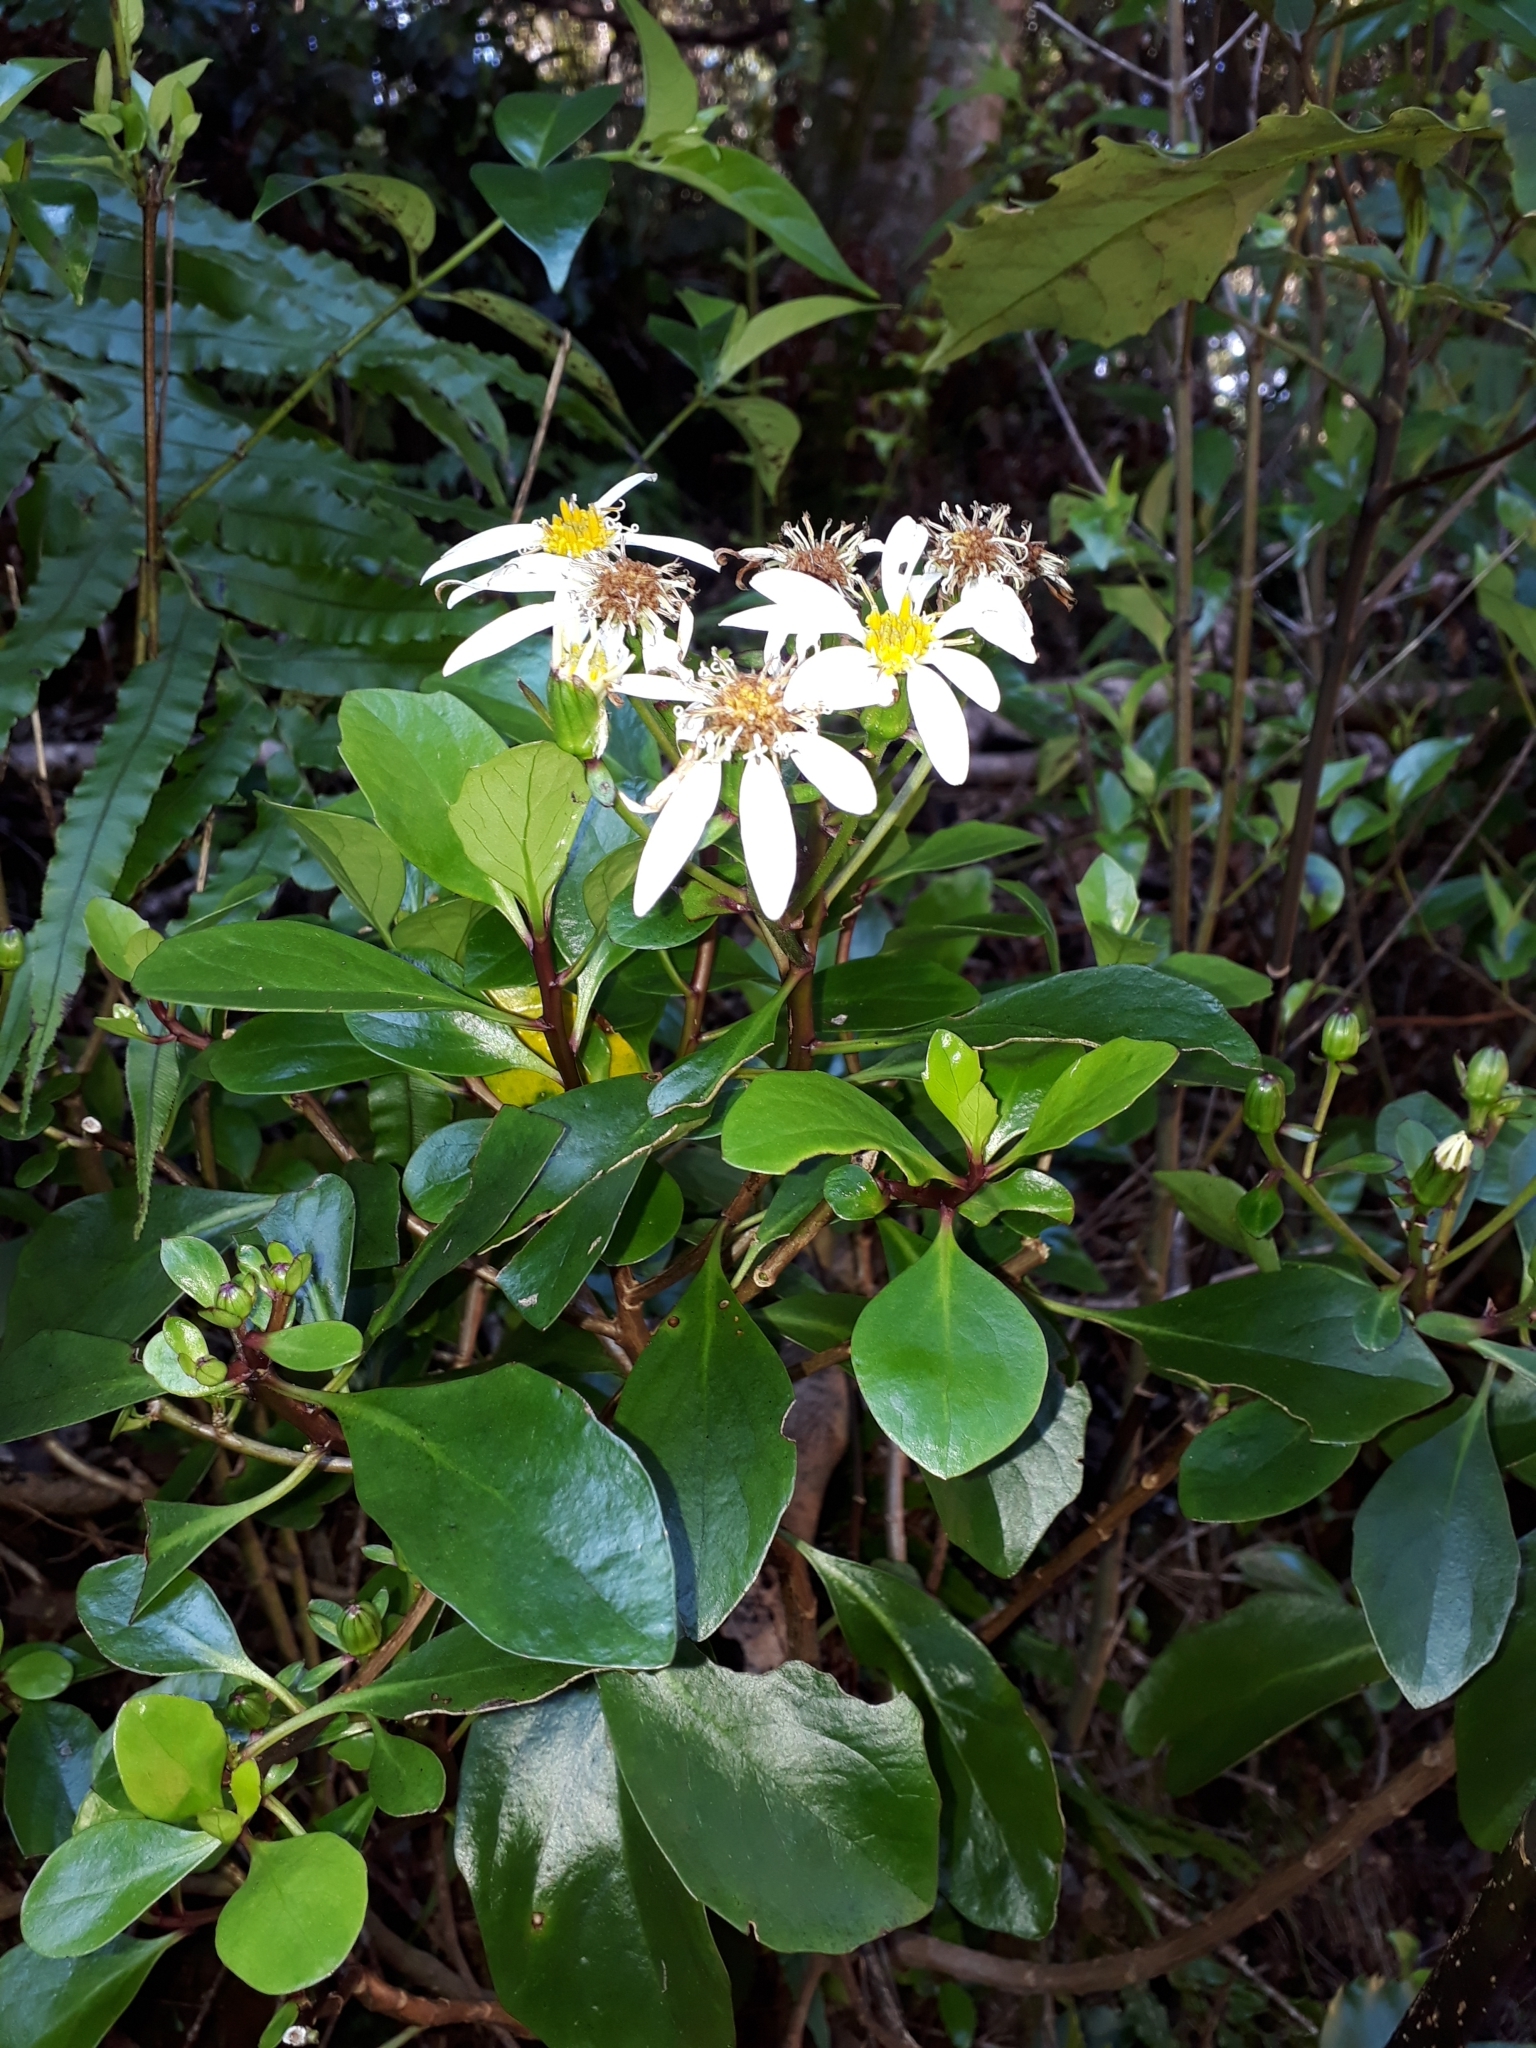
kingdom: Plantae
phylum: Tracheophyta
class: Magnoliopsida
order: Asterales
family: Asteraceae
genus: Brachyglottis
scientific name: Brachyglottis kirkii
